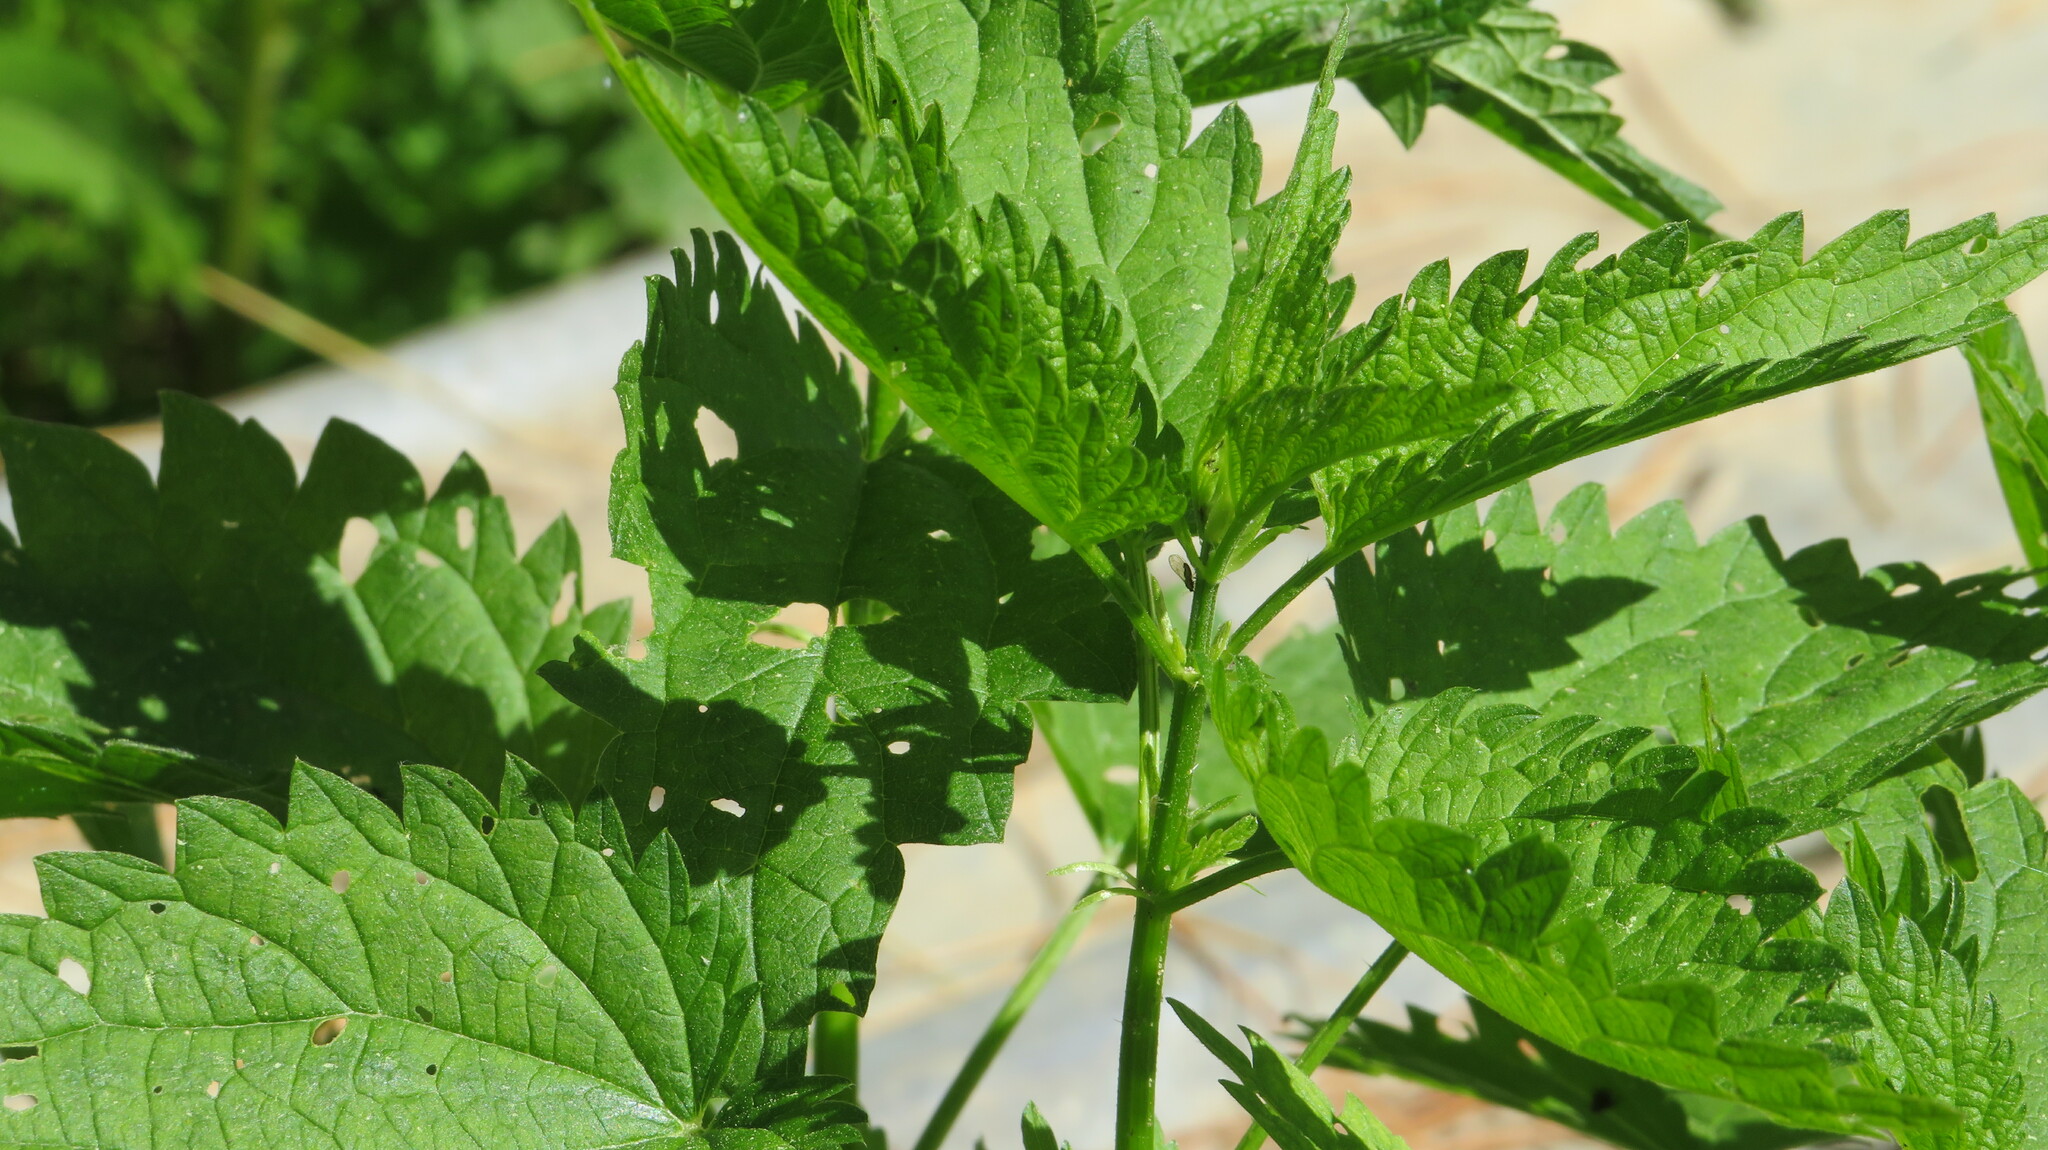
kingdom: Plantae
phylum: Tracheophyta
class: Magnoliopsida
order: Rosales
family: Urticaceae
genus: Urtica
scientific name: Urtica dioica
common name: Common nettle
